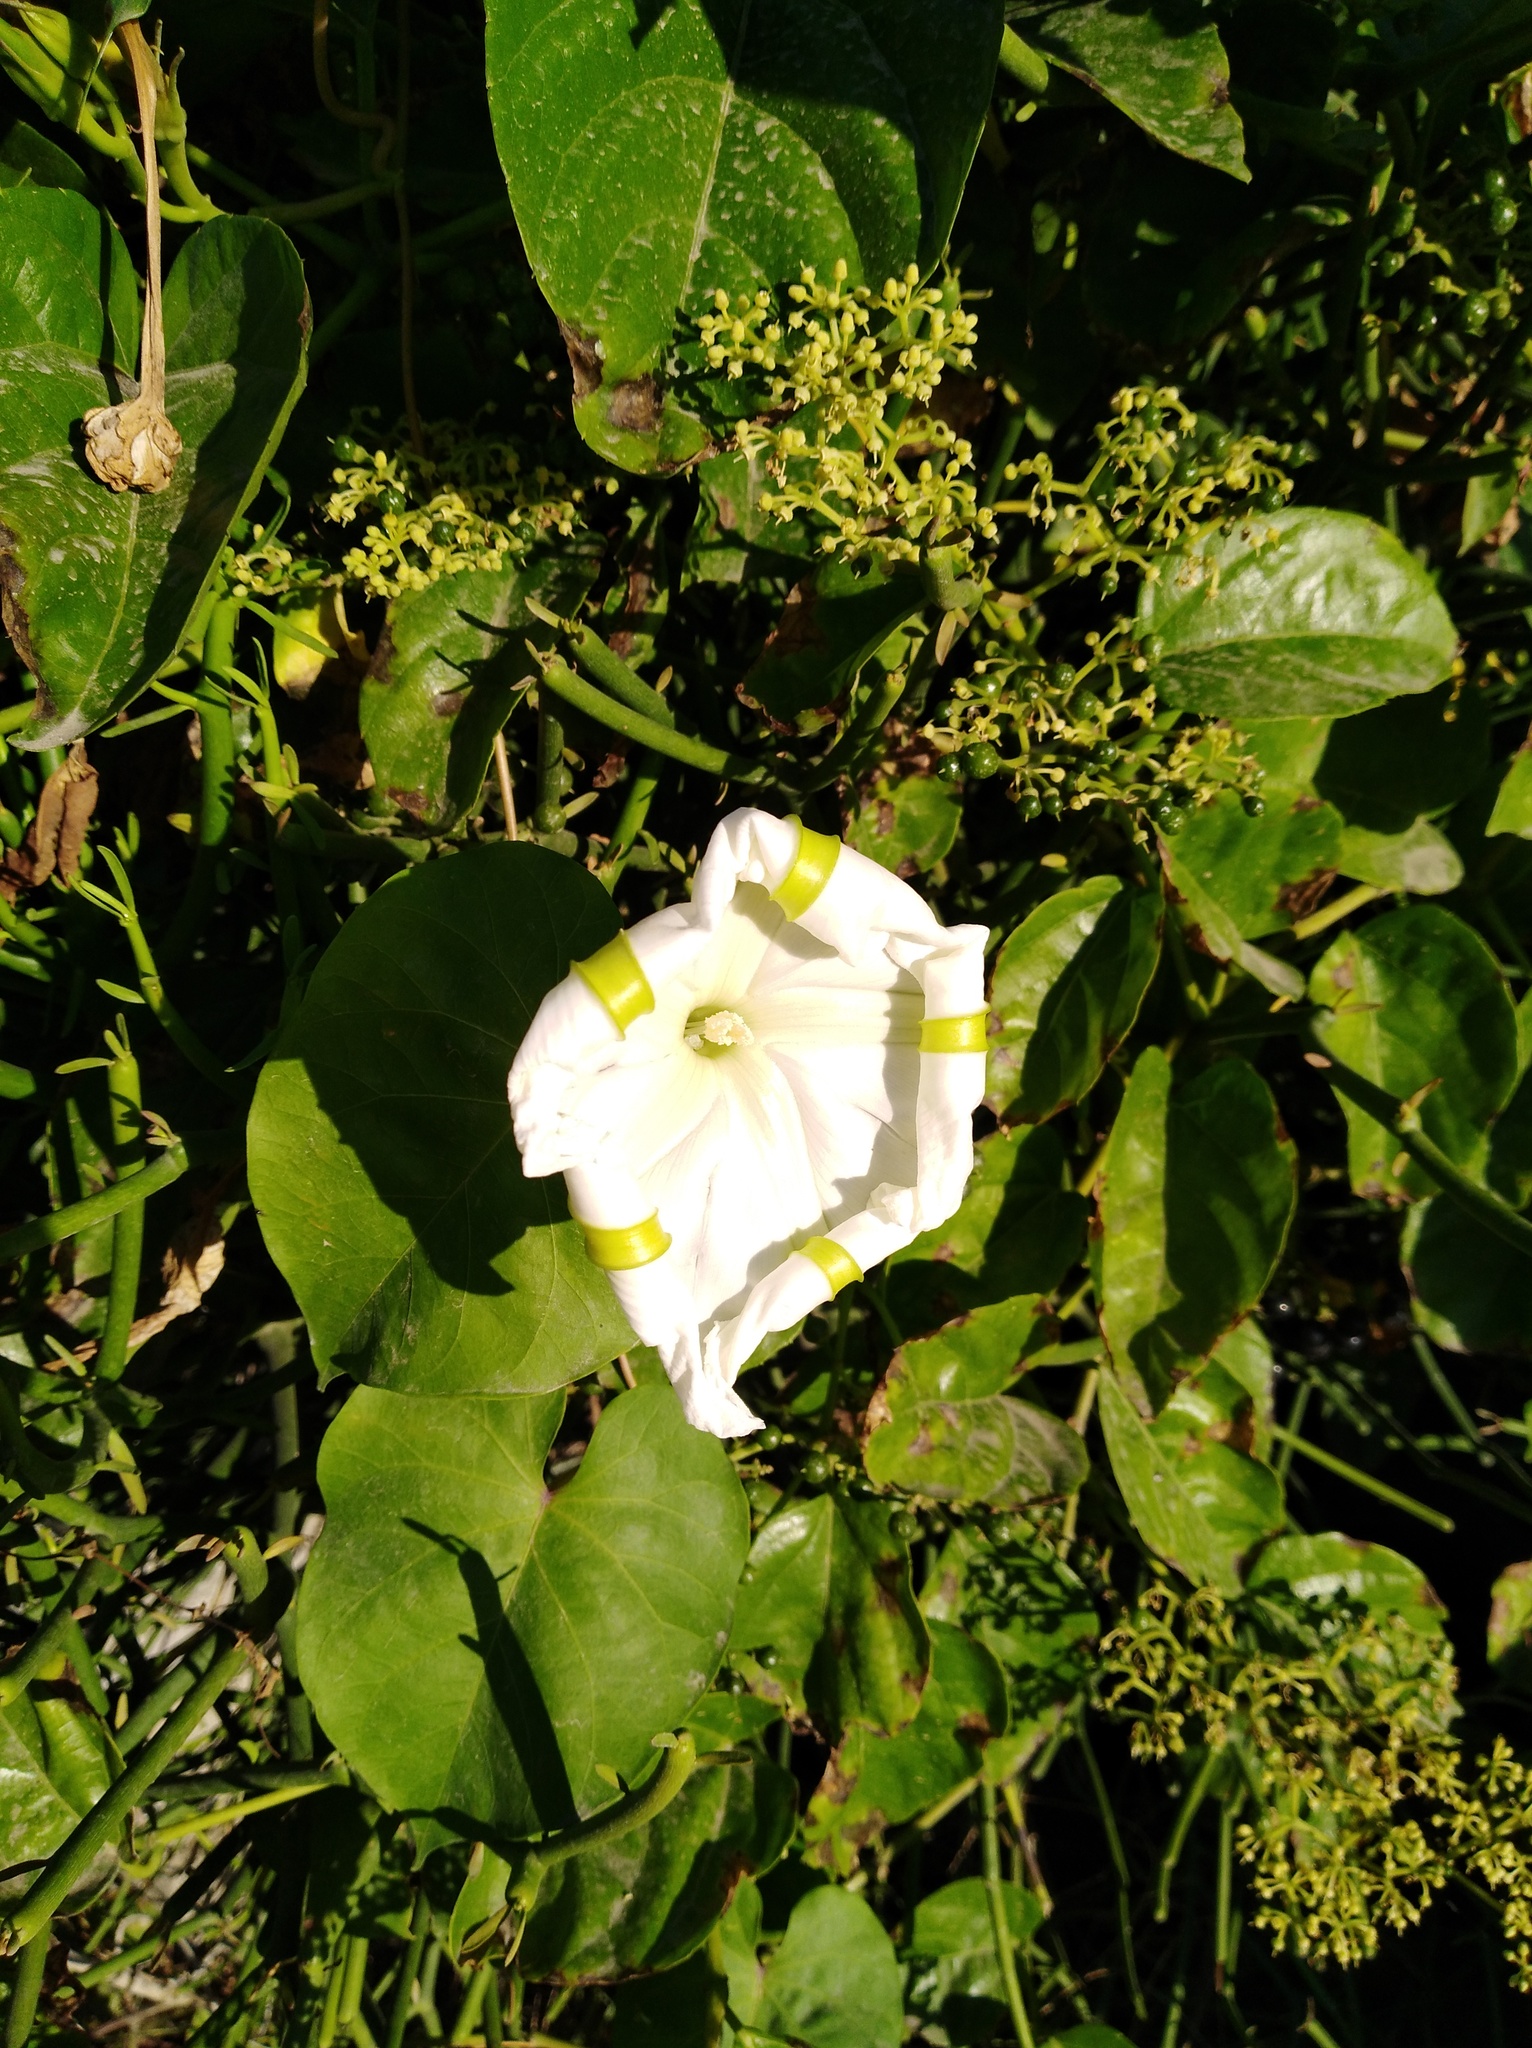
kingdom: Plantae
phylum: Tracheophyta
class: Magnoliopsida
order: Solanales
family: Convolvulaceae
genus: Ipomoea
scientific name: Ipomoea alba
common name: Moonflower
